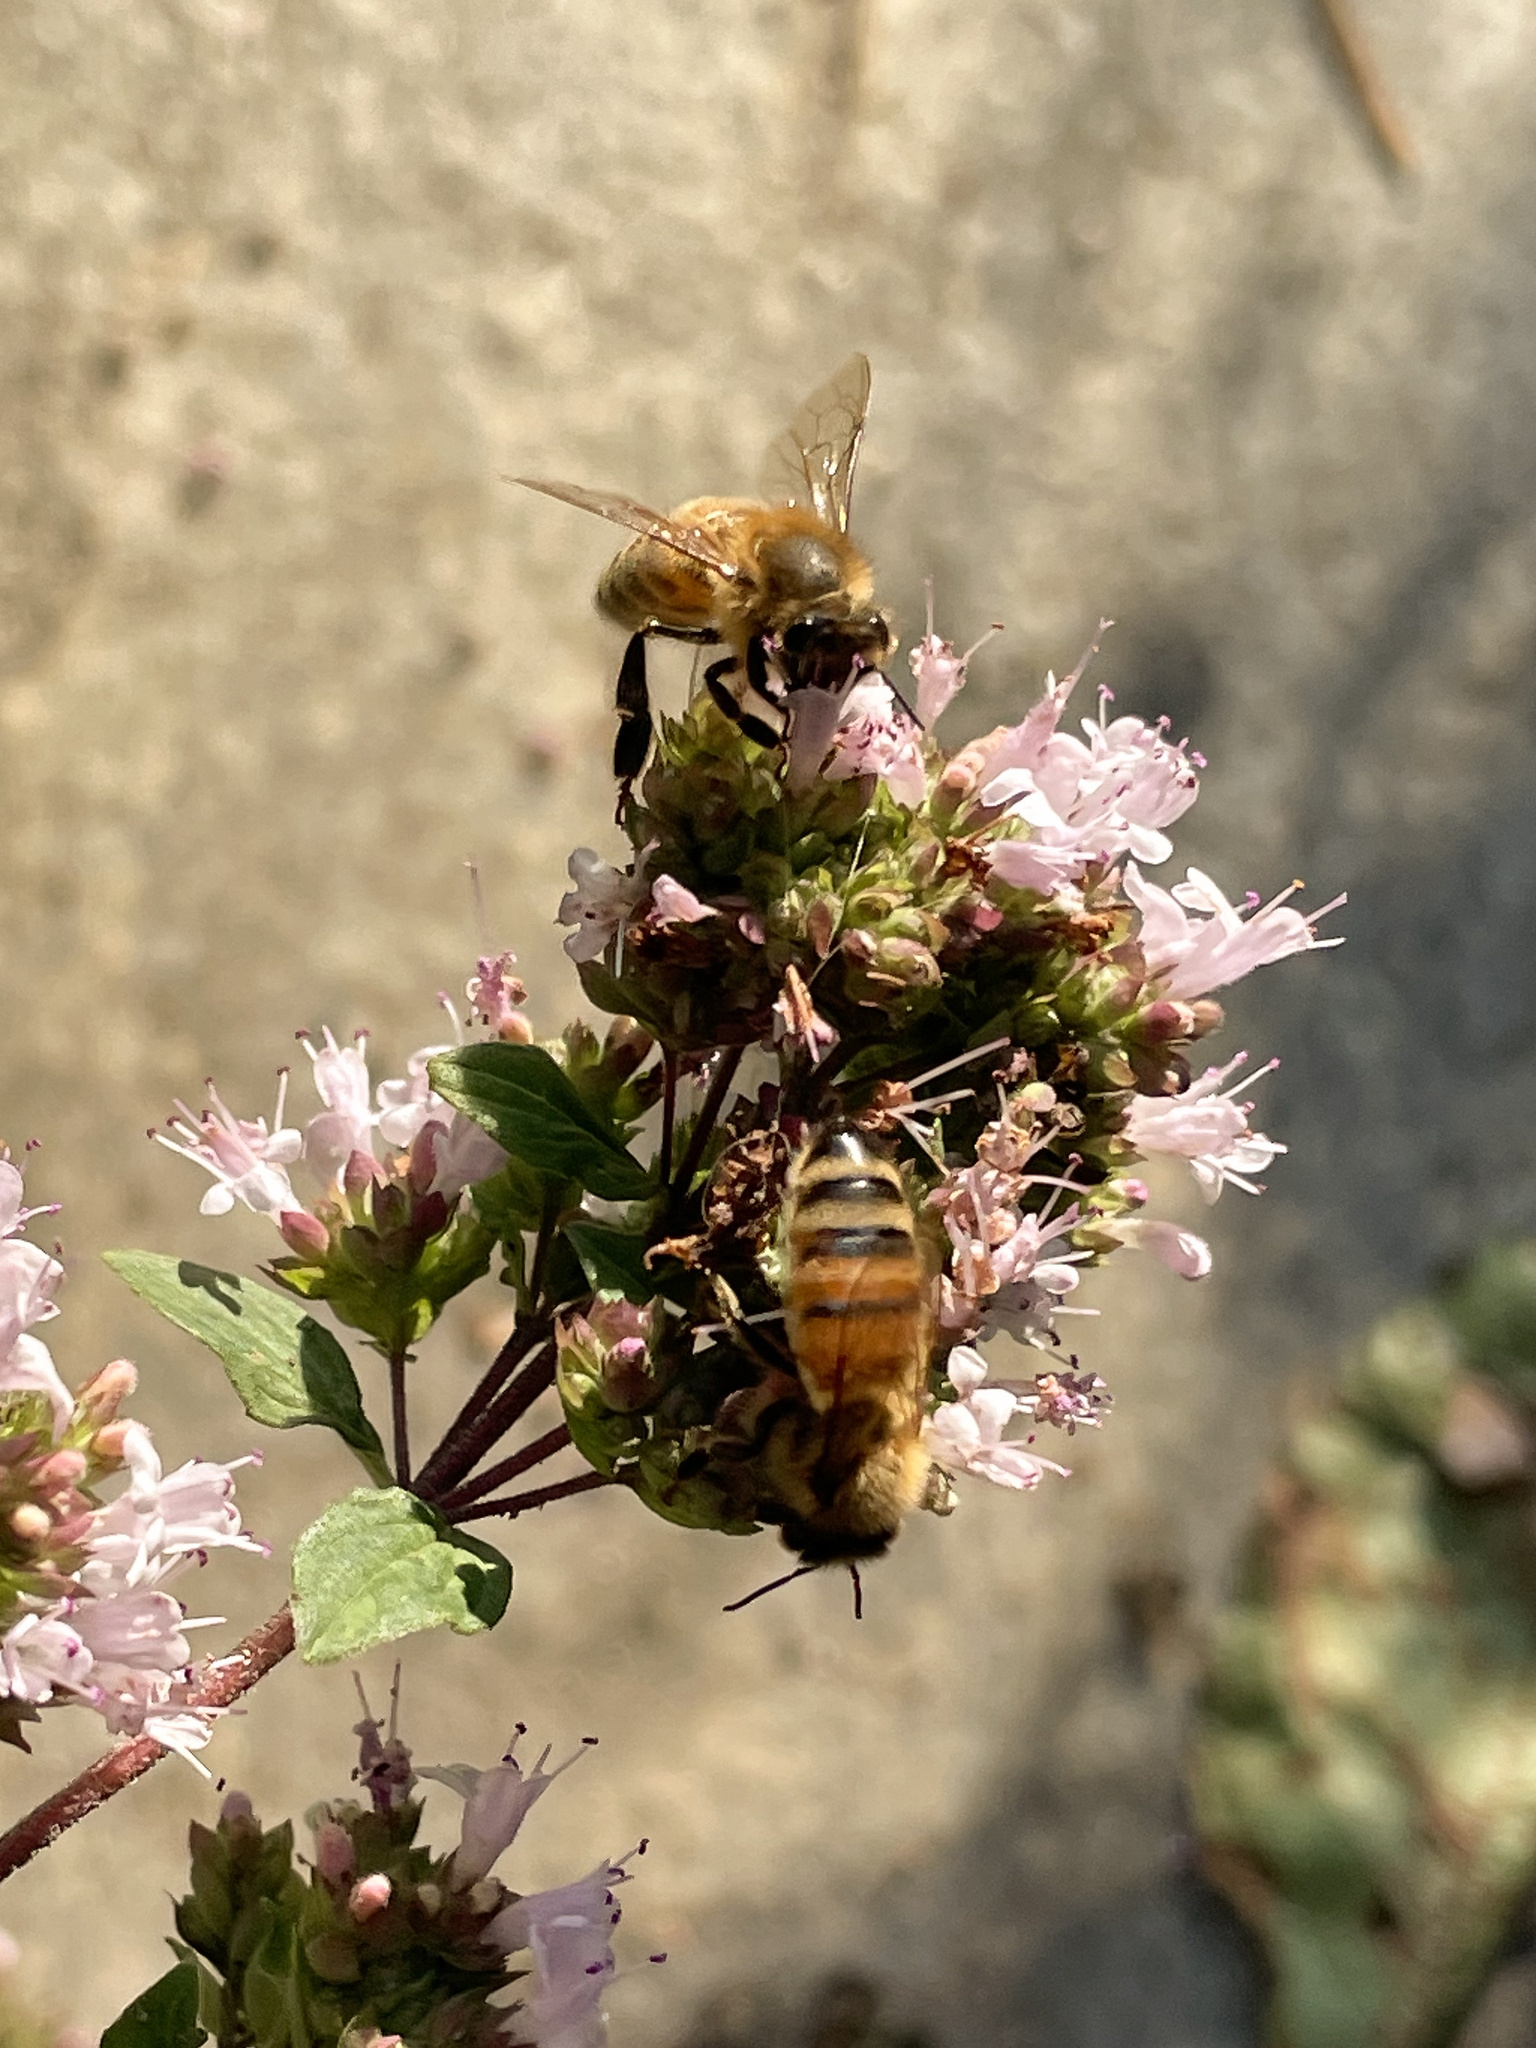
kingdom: Animalia
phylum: Arthropoda
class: Insecta
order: Hymenoptera
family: Apidae
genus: Apis
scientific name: Apis mellifera
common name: Honey bee
